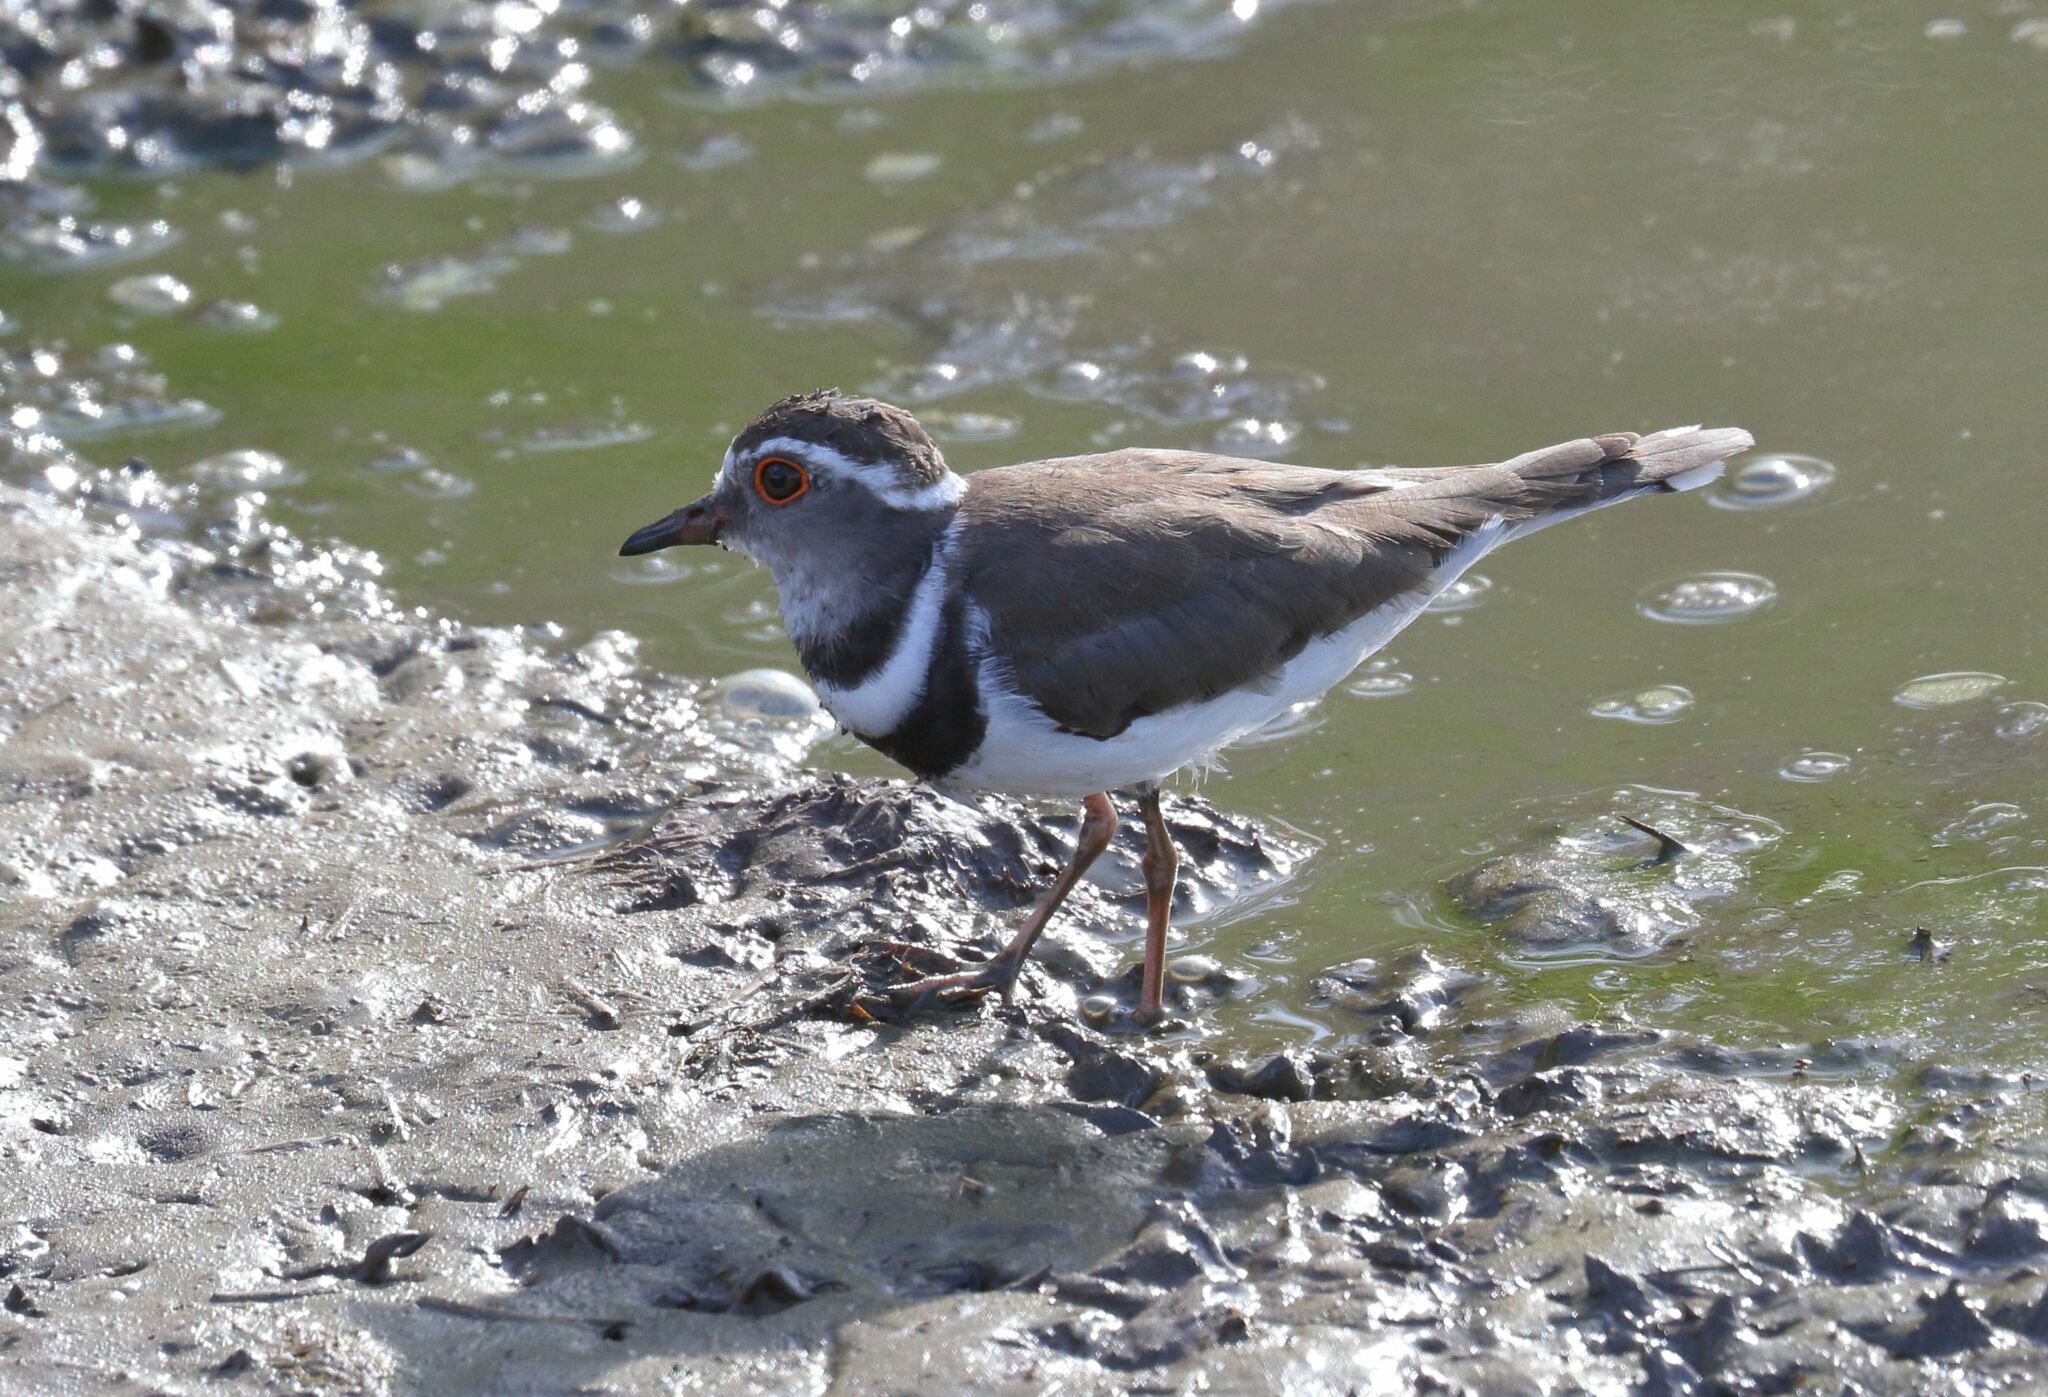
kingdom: Animalia
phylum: Chordata
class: Aves
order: Charadriiformes
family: Charadriidae
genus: Charadrius
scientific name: Charadrius tricollaris
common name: Three-banded plover
